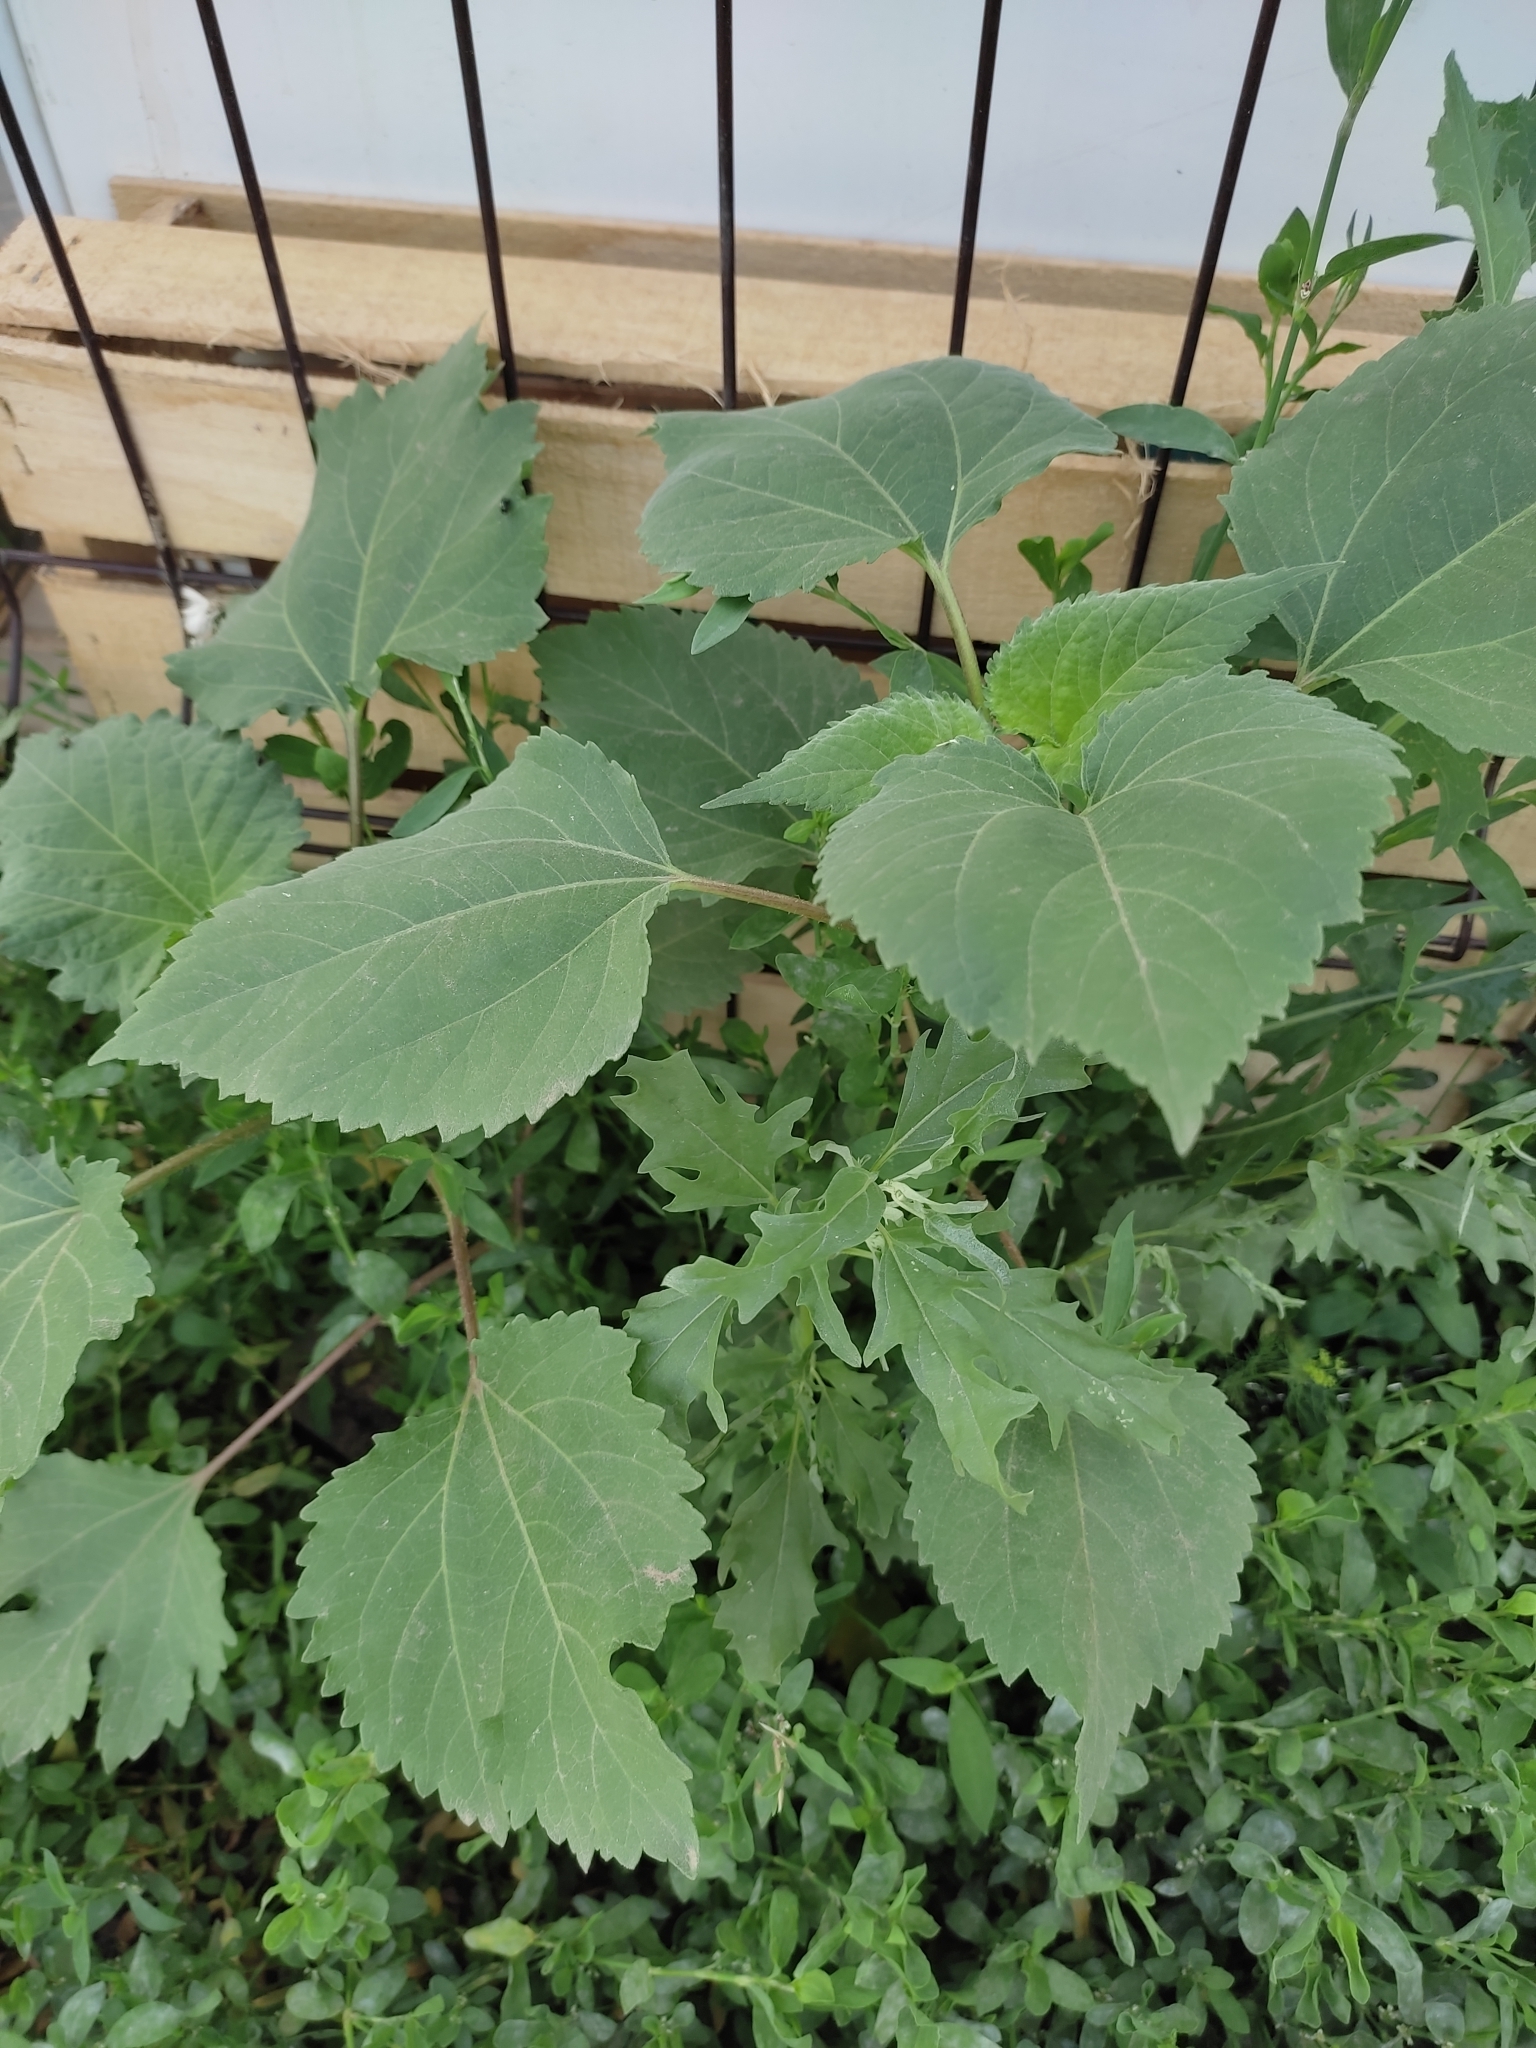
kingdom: Plantae
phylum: Tracheophyta
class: Magnoliopsida
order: Asterales
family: Asteraceae
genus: Cyclachaena
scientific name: Cyclachaena xanthiifolia
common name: Giant sumpweed
